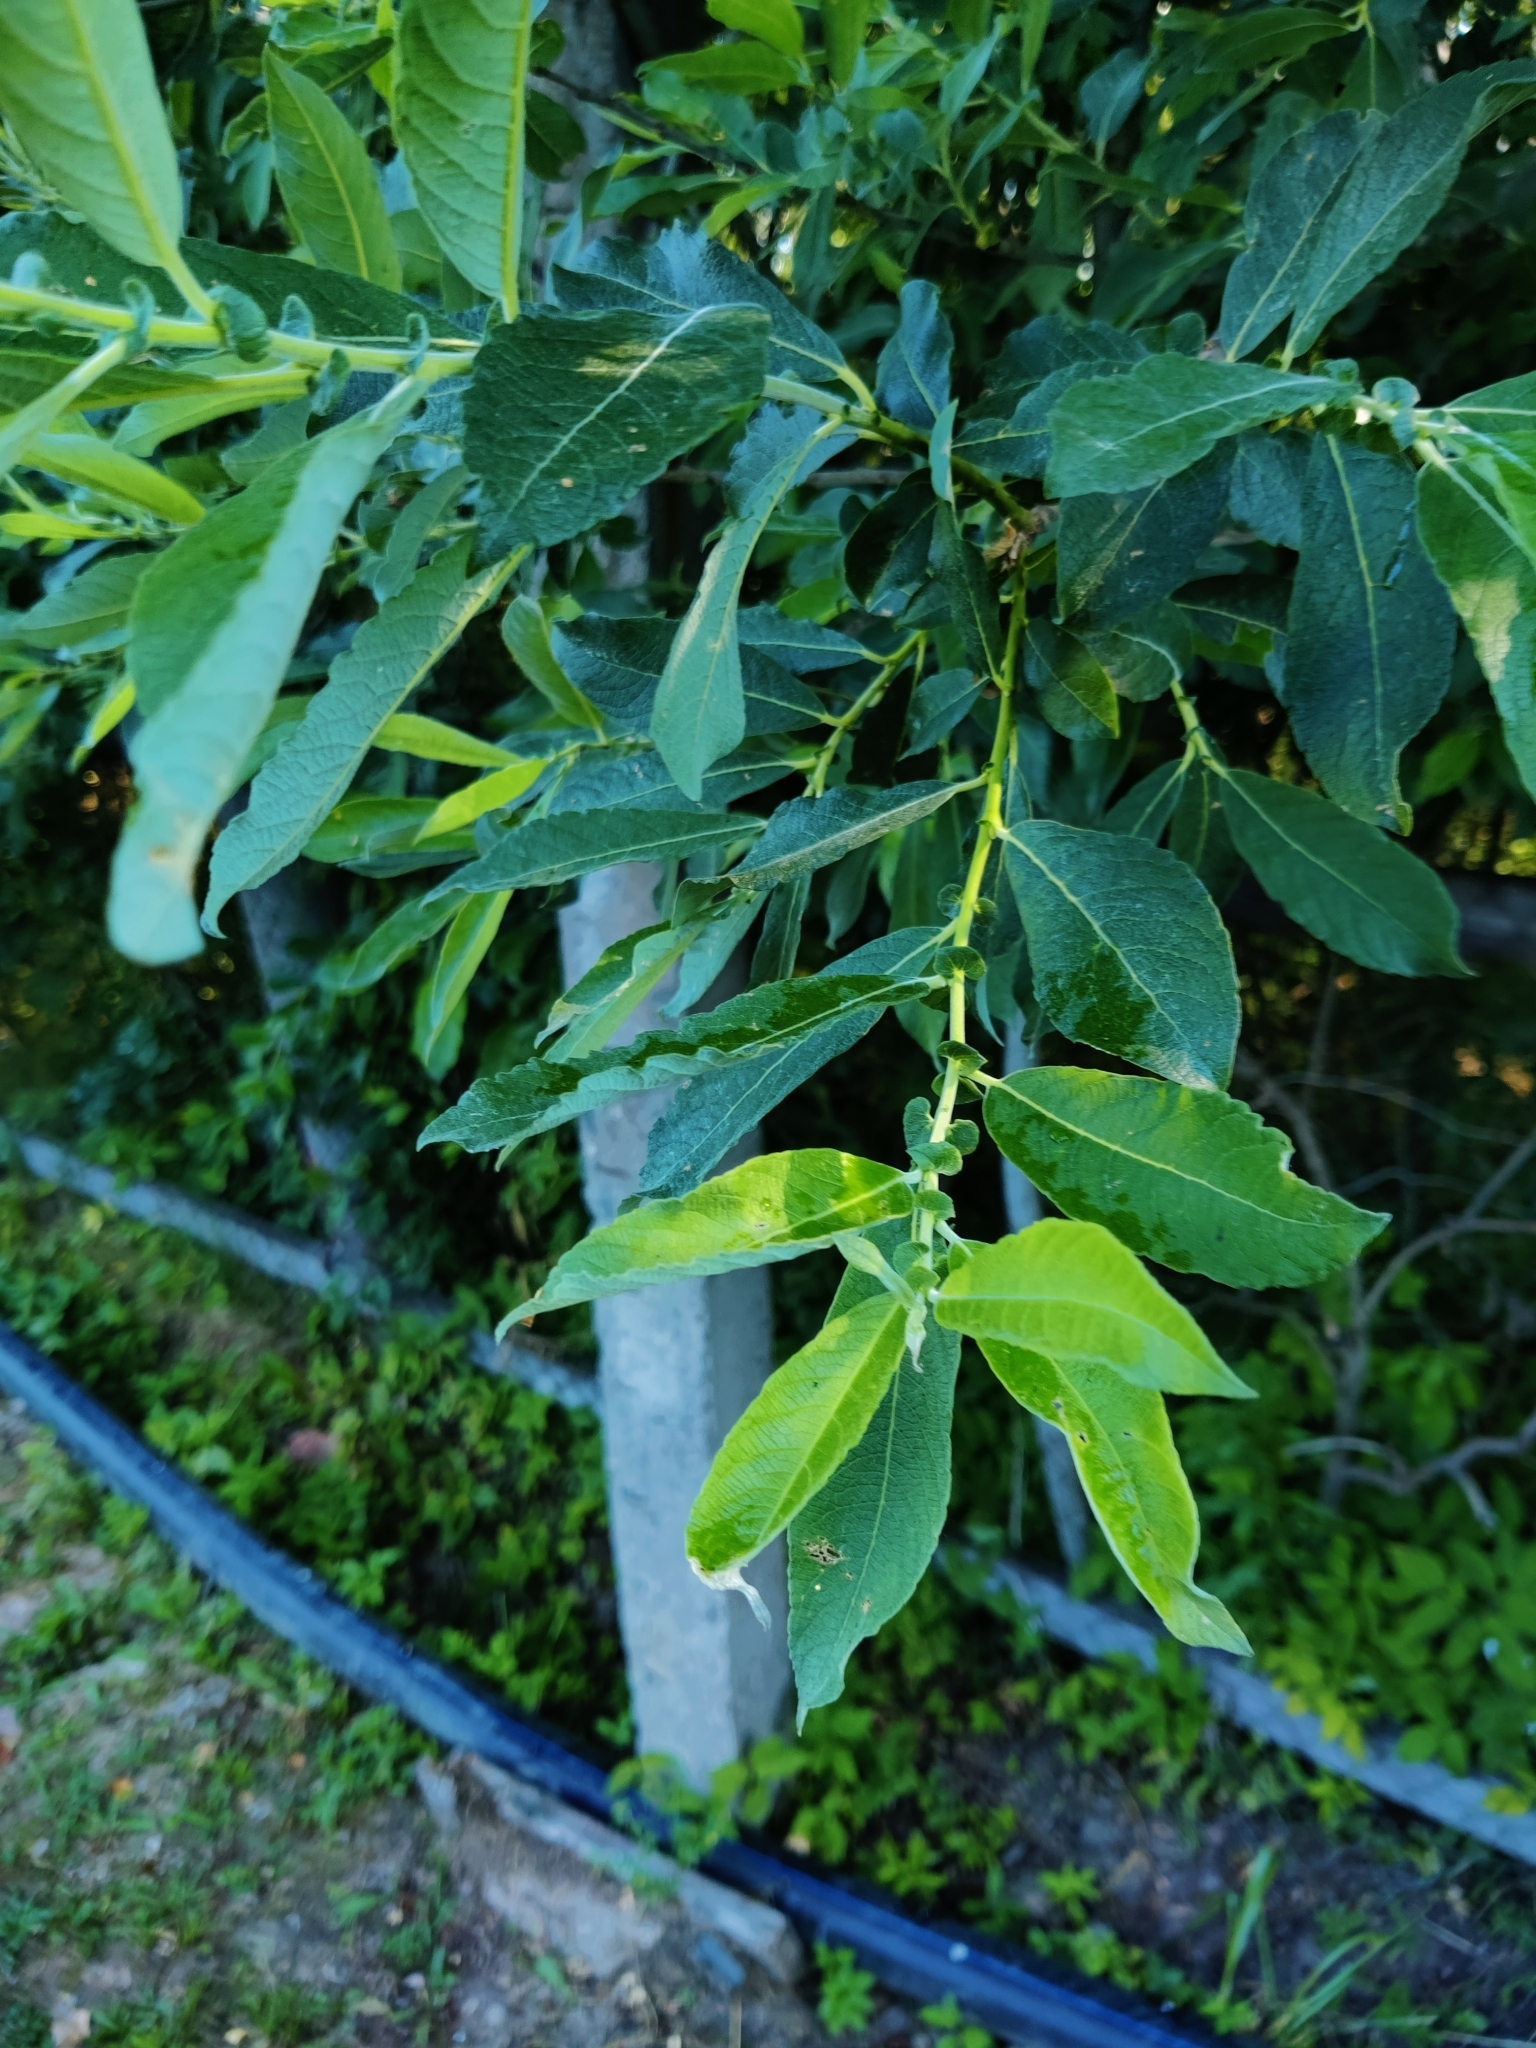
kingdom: Plantae
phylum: Tracheophyta
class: Magnoliopsida
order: Malpighiales
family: Salicaceae
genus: Salix
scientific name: Salix cinerea
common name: Common sallow
